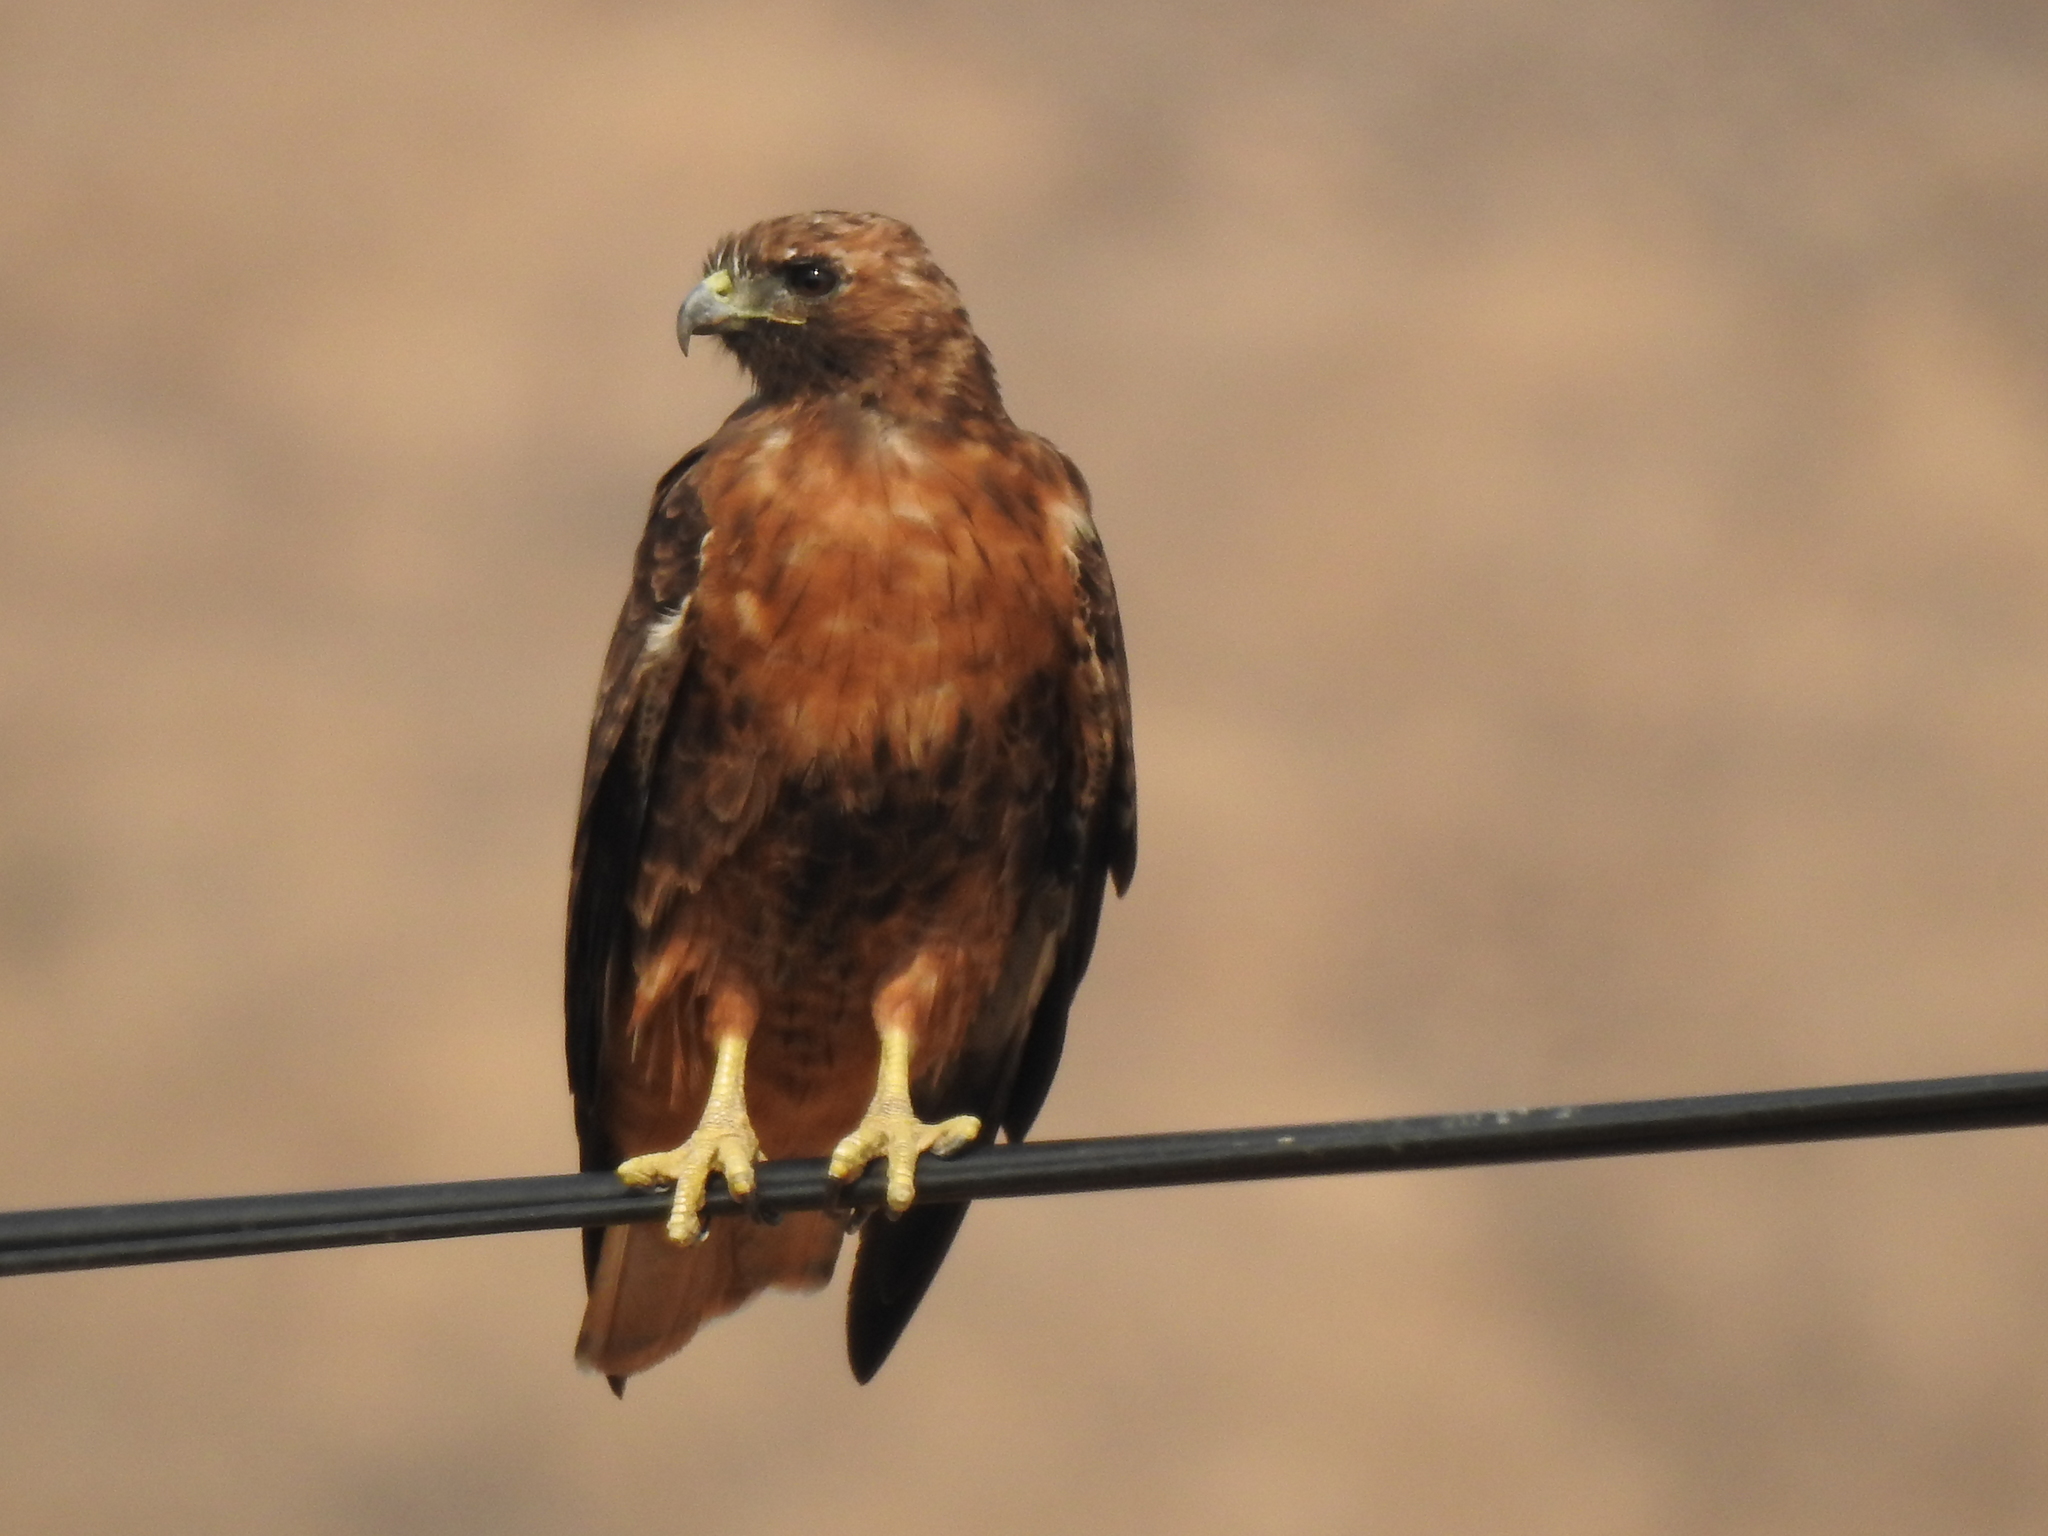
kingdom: Animalia
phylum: Chordata
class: Aves
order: Accipitriformes
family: Accipitridae
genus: Buteo
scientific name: Buteo jamaicensis
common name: Red-tailed hawk
